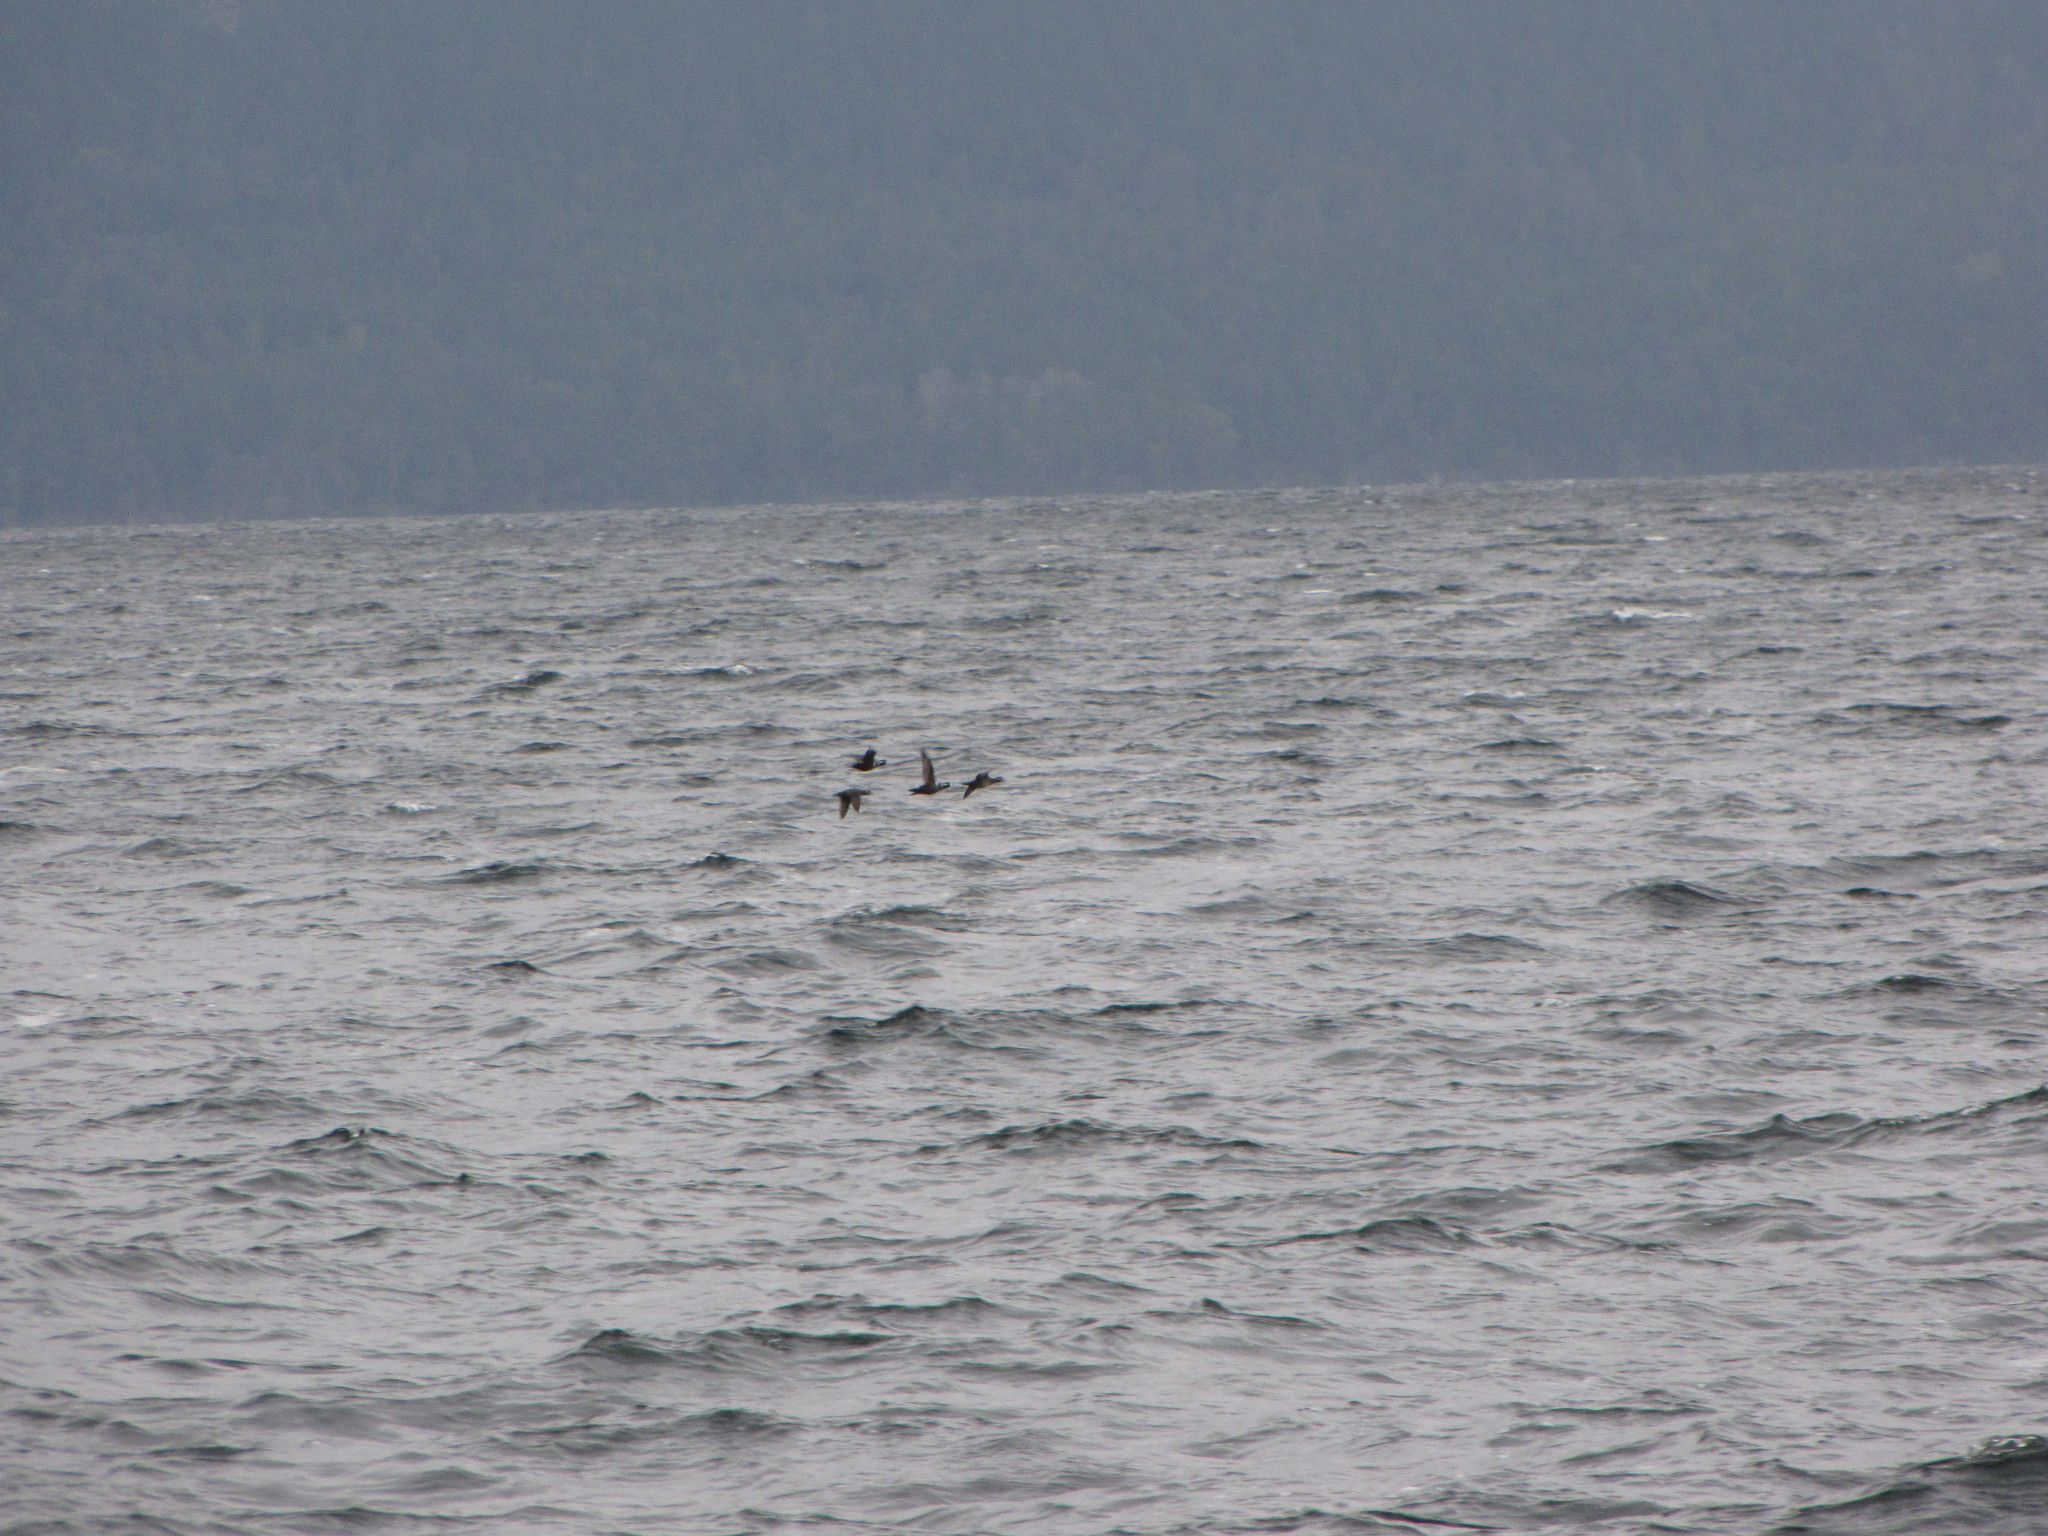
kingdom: Animalia
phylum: Chordata
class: Aves
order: Anseriformes
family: Anatidae
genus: Histrionicus
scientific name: Histrionicus histrionicus
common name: Harlequin duck
